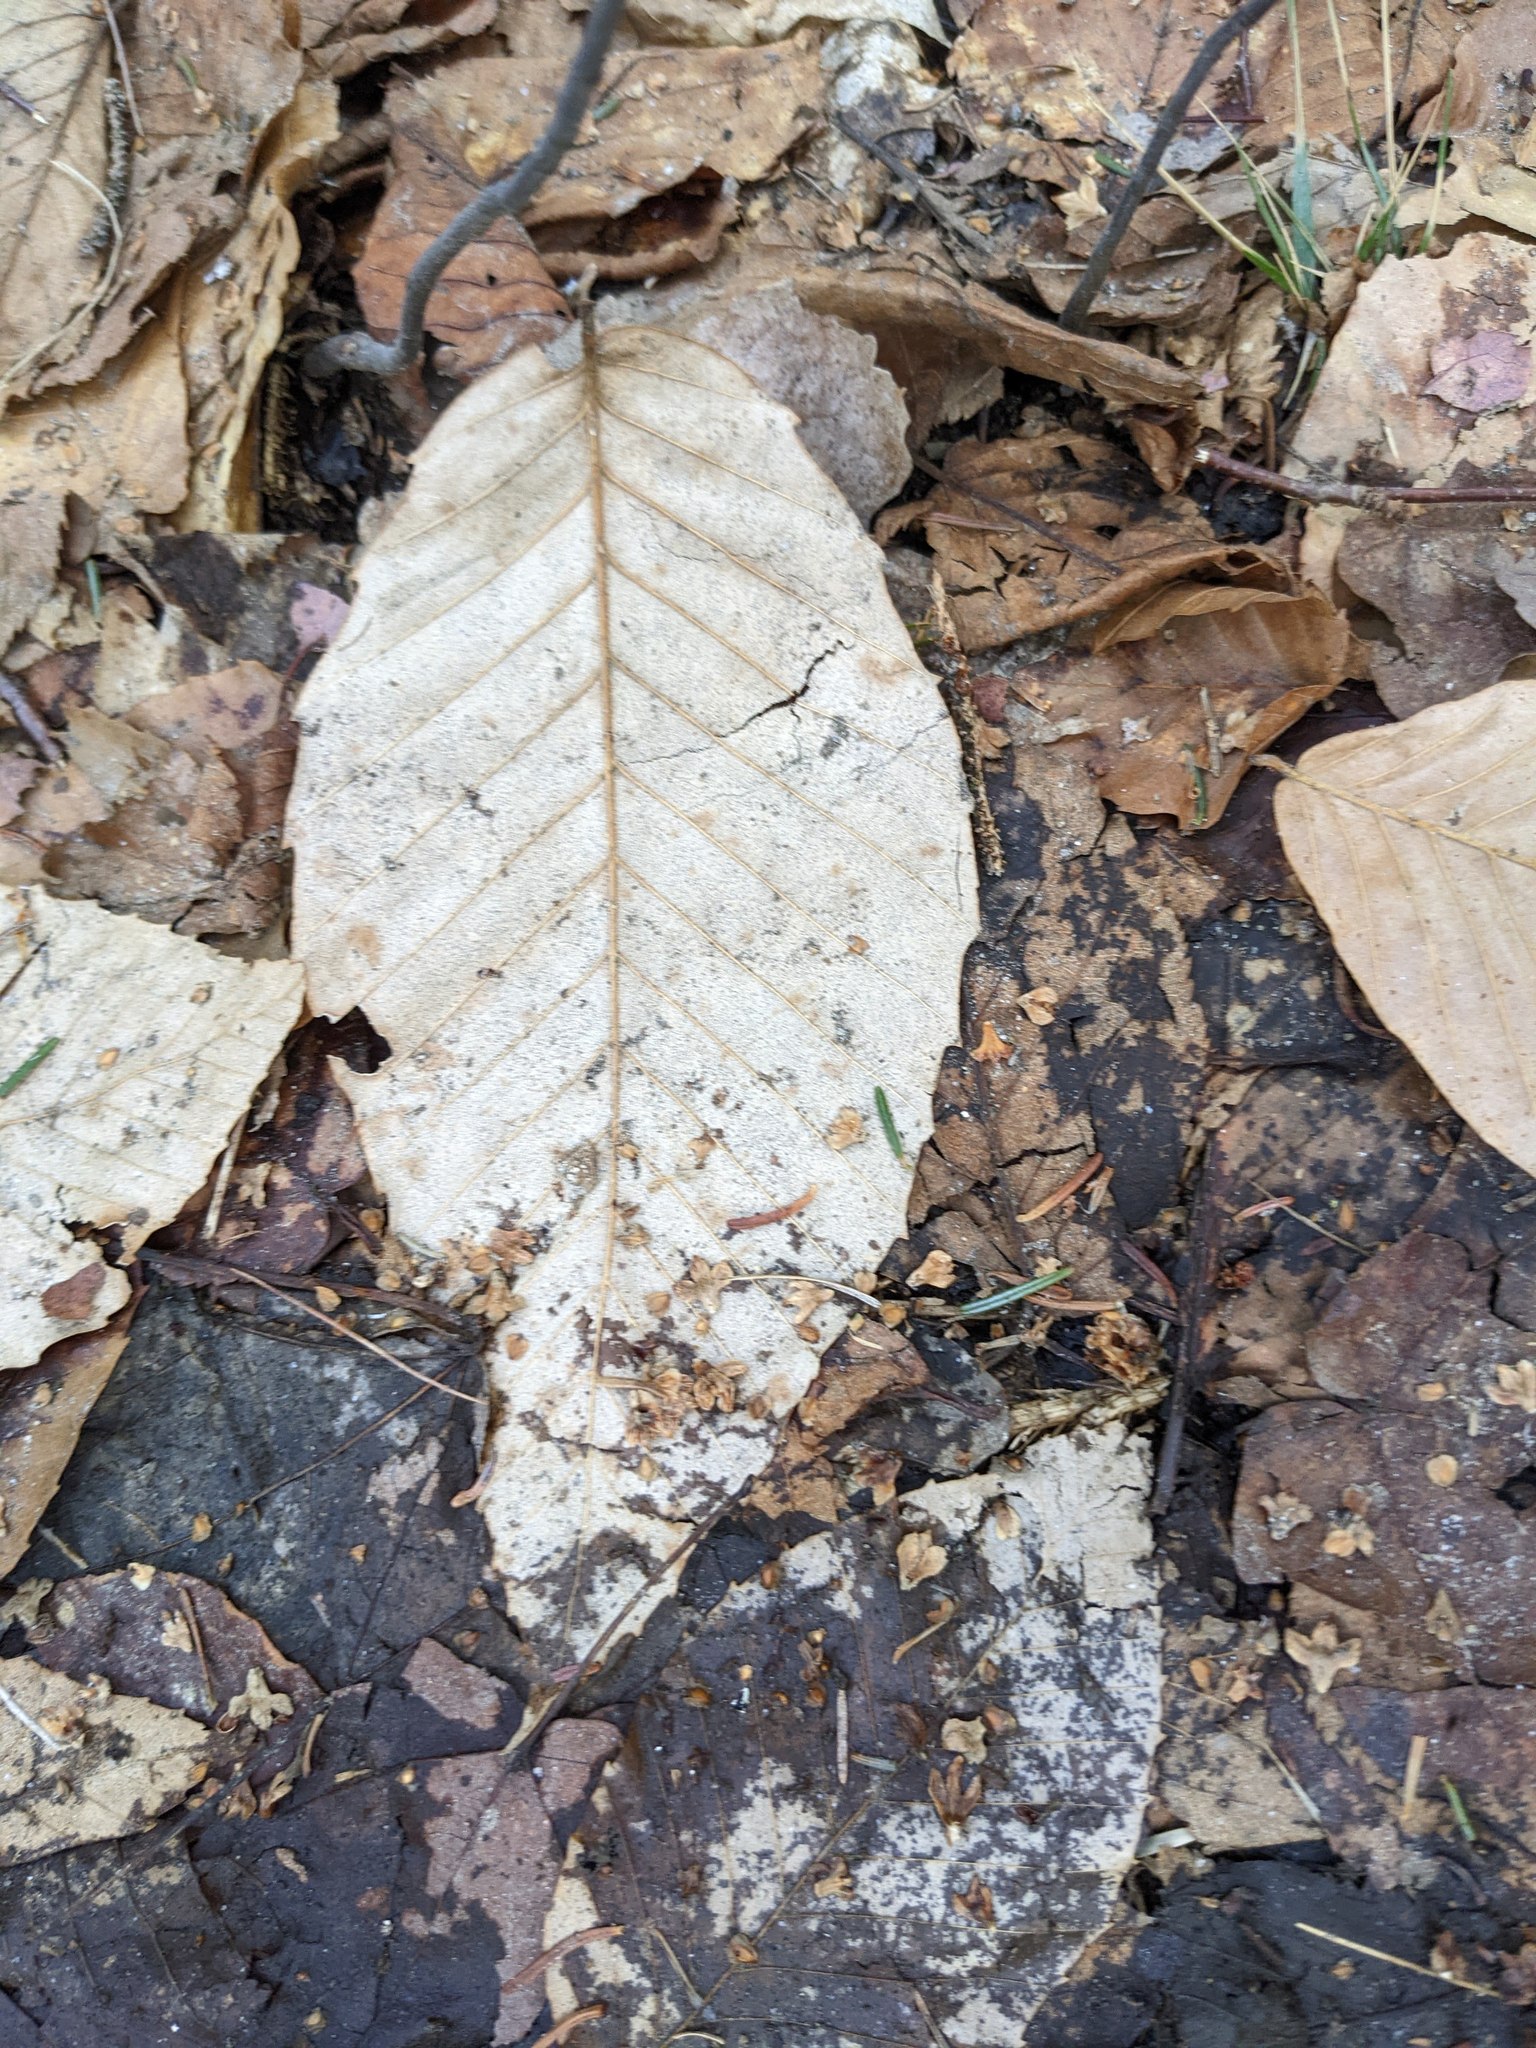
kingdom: Plantae
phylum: Tracheophyta
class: Magnoliopsida
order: Fagales
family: Fagaceae
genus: Fagus
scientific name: Fagus grandifolia
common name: American beech
